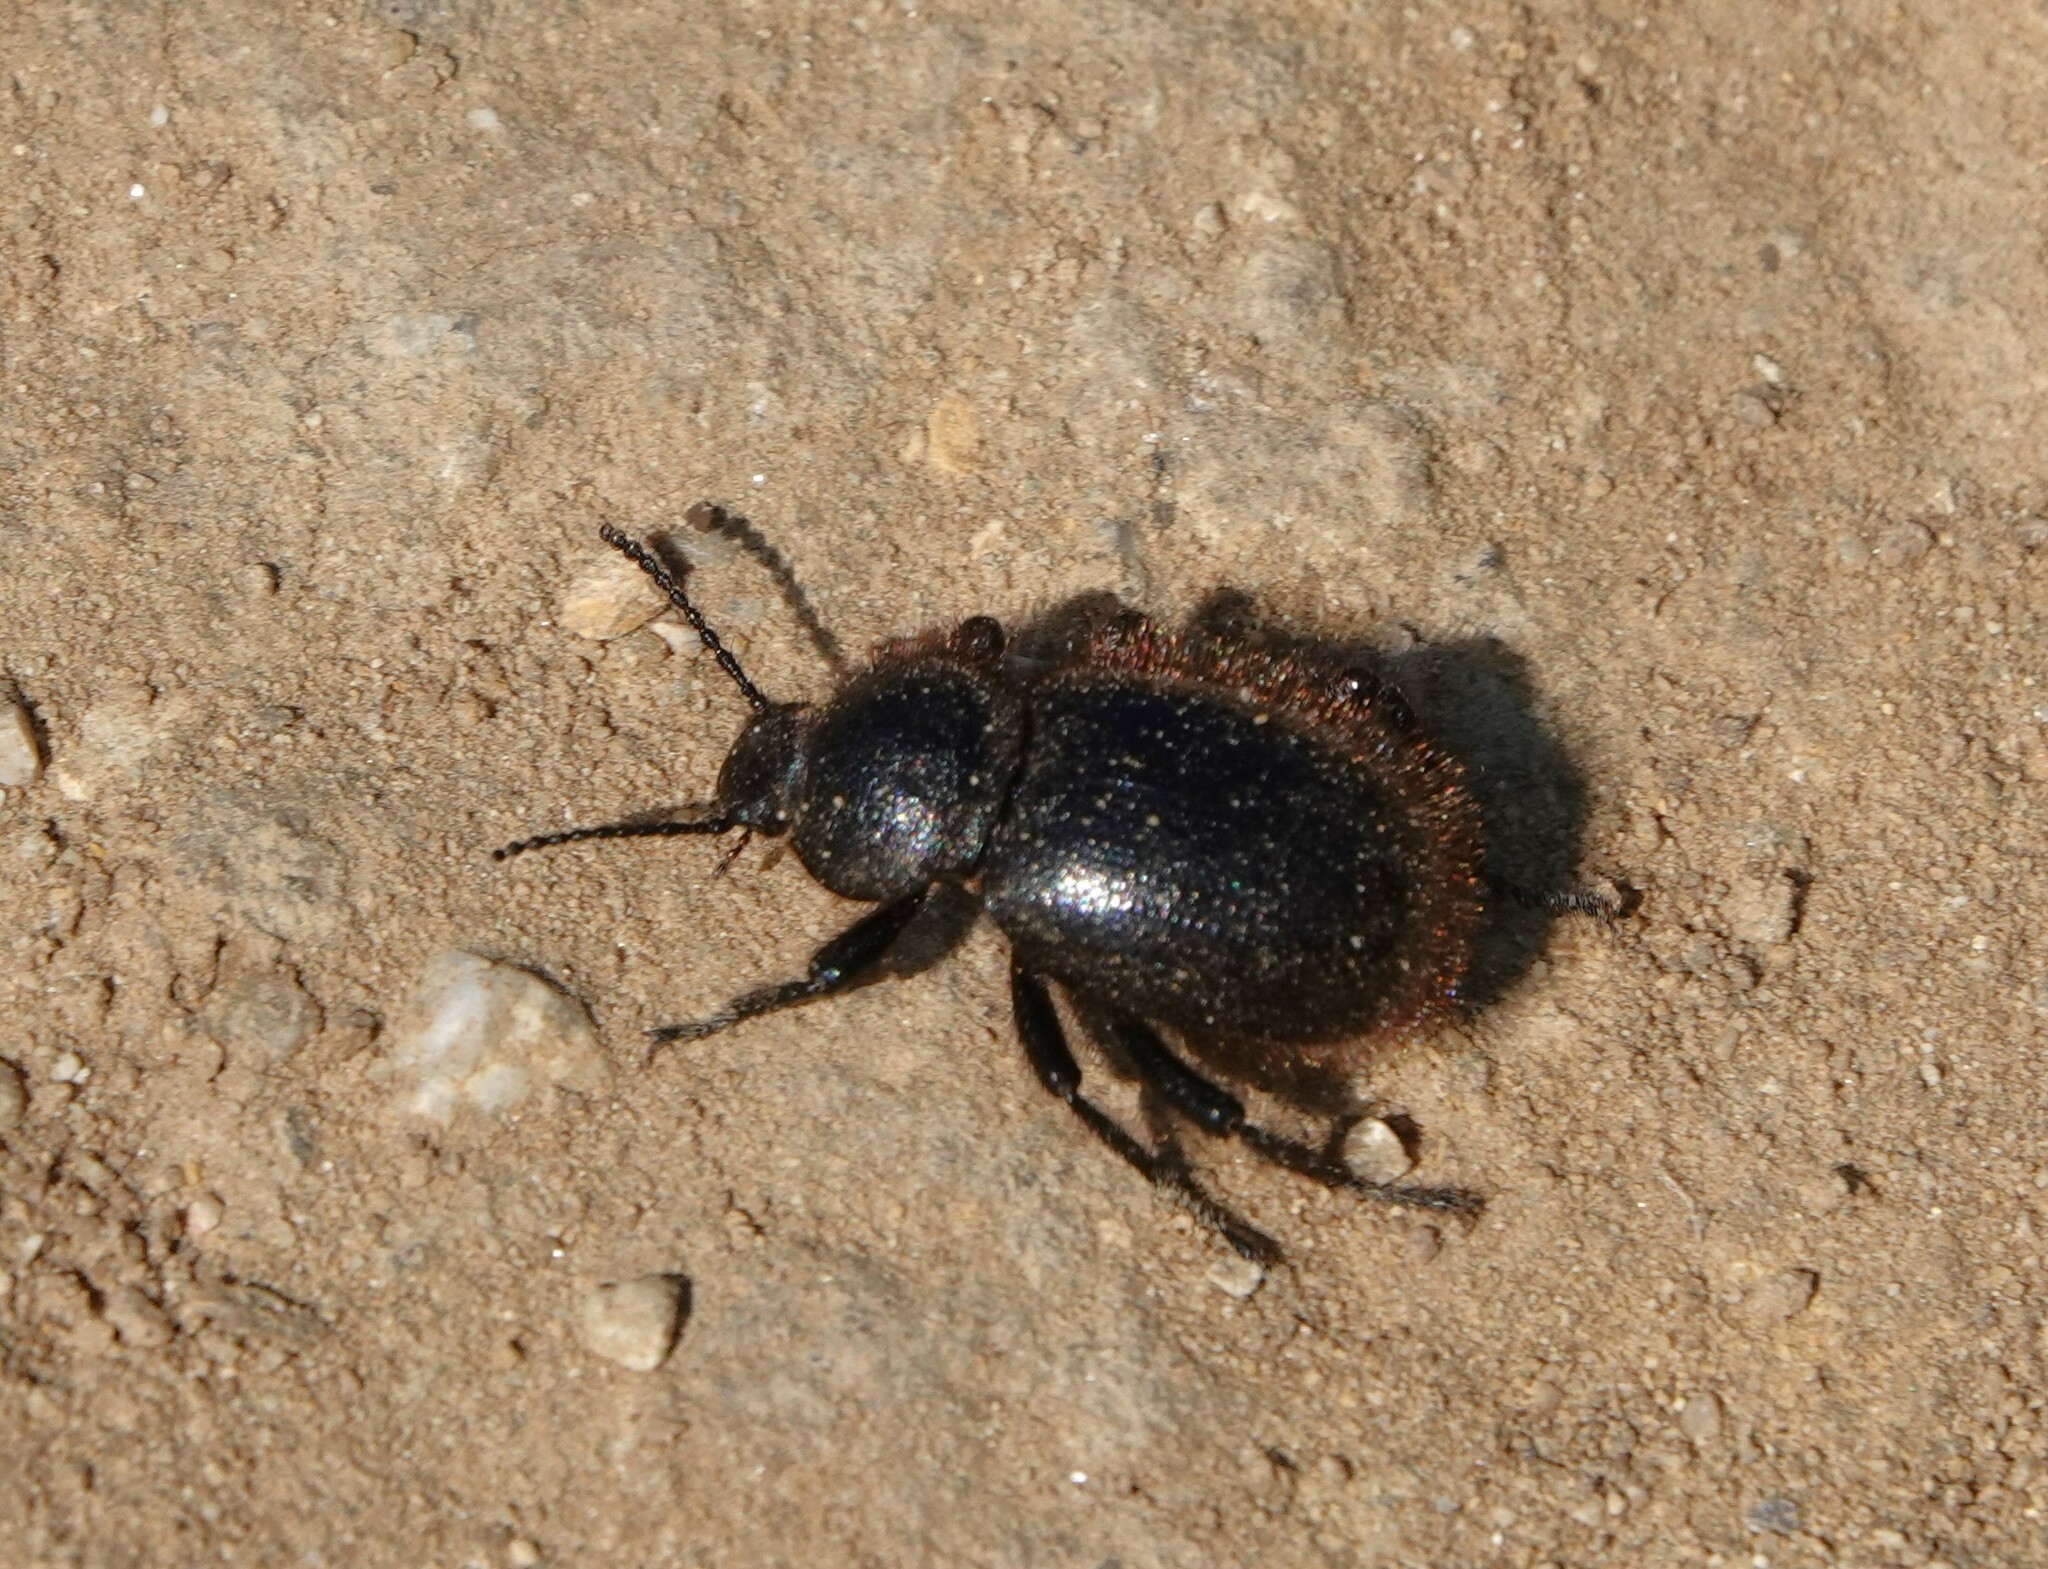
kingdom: Animalia
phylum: Arthropoda
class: Insecta
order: Coleoptera
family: Tenebrionidae
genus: Eleodes
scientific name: Eleodes osculans
